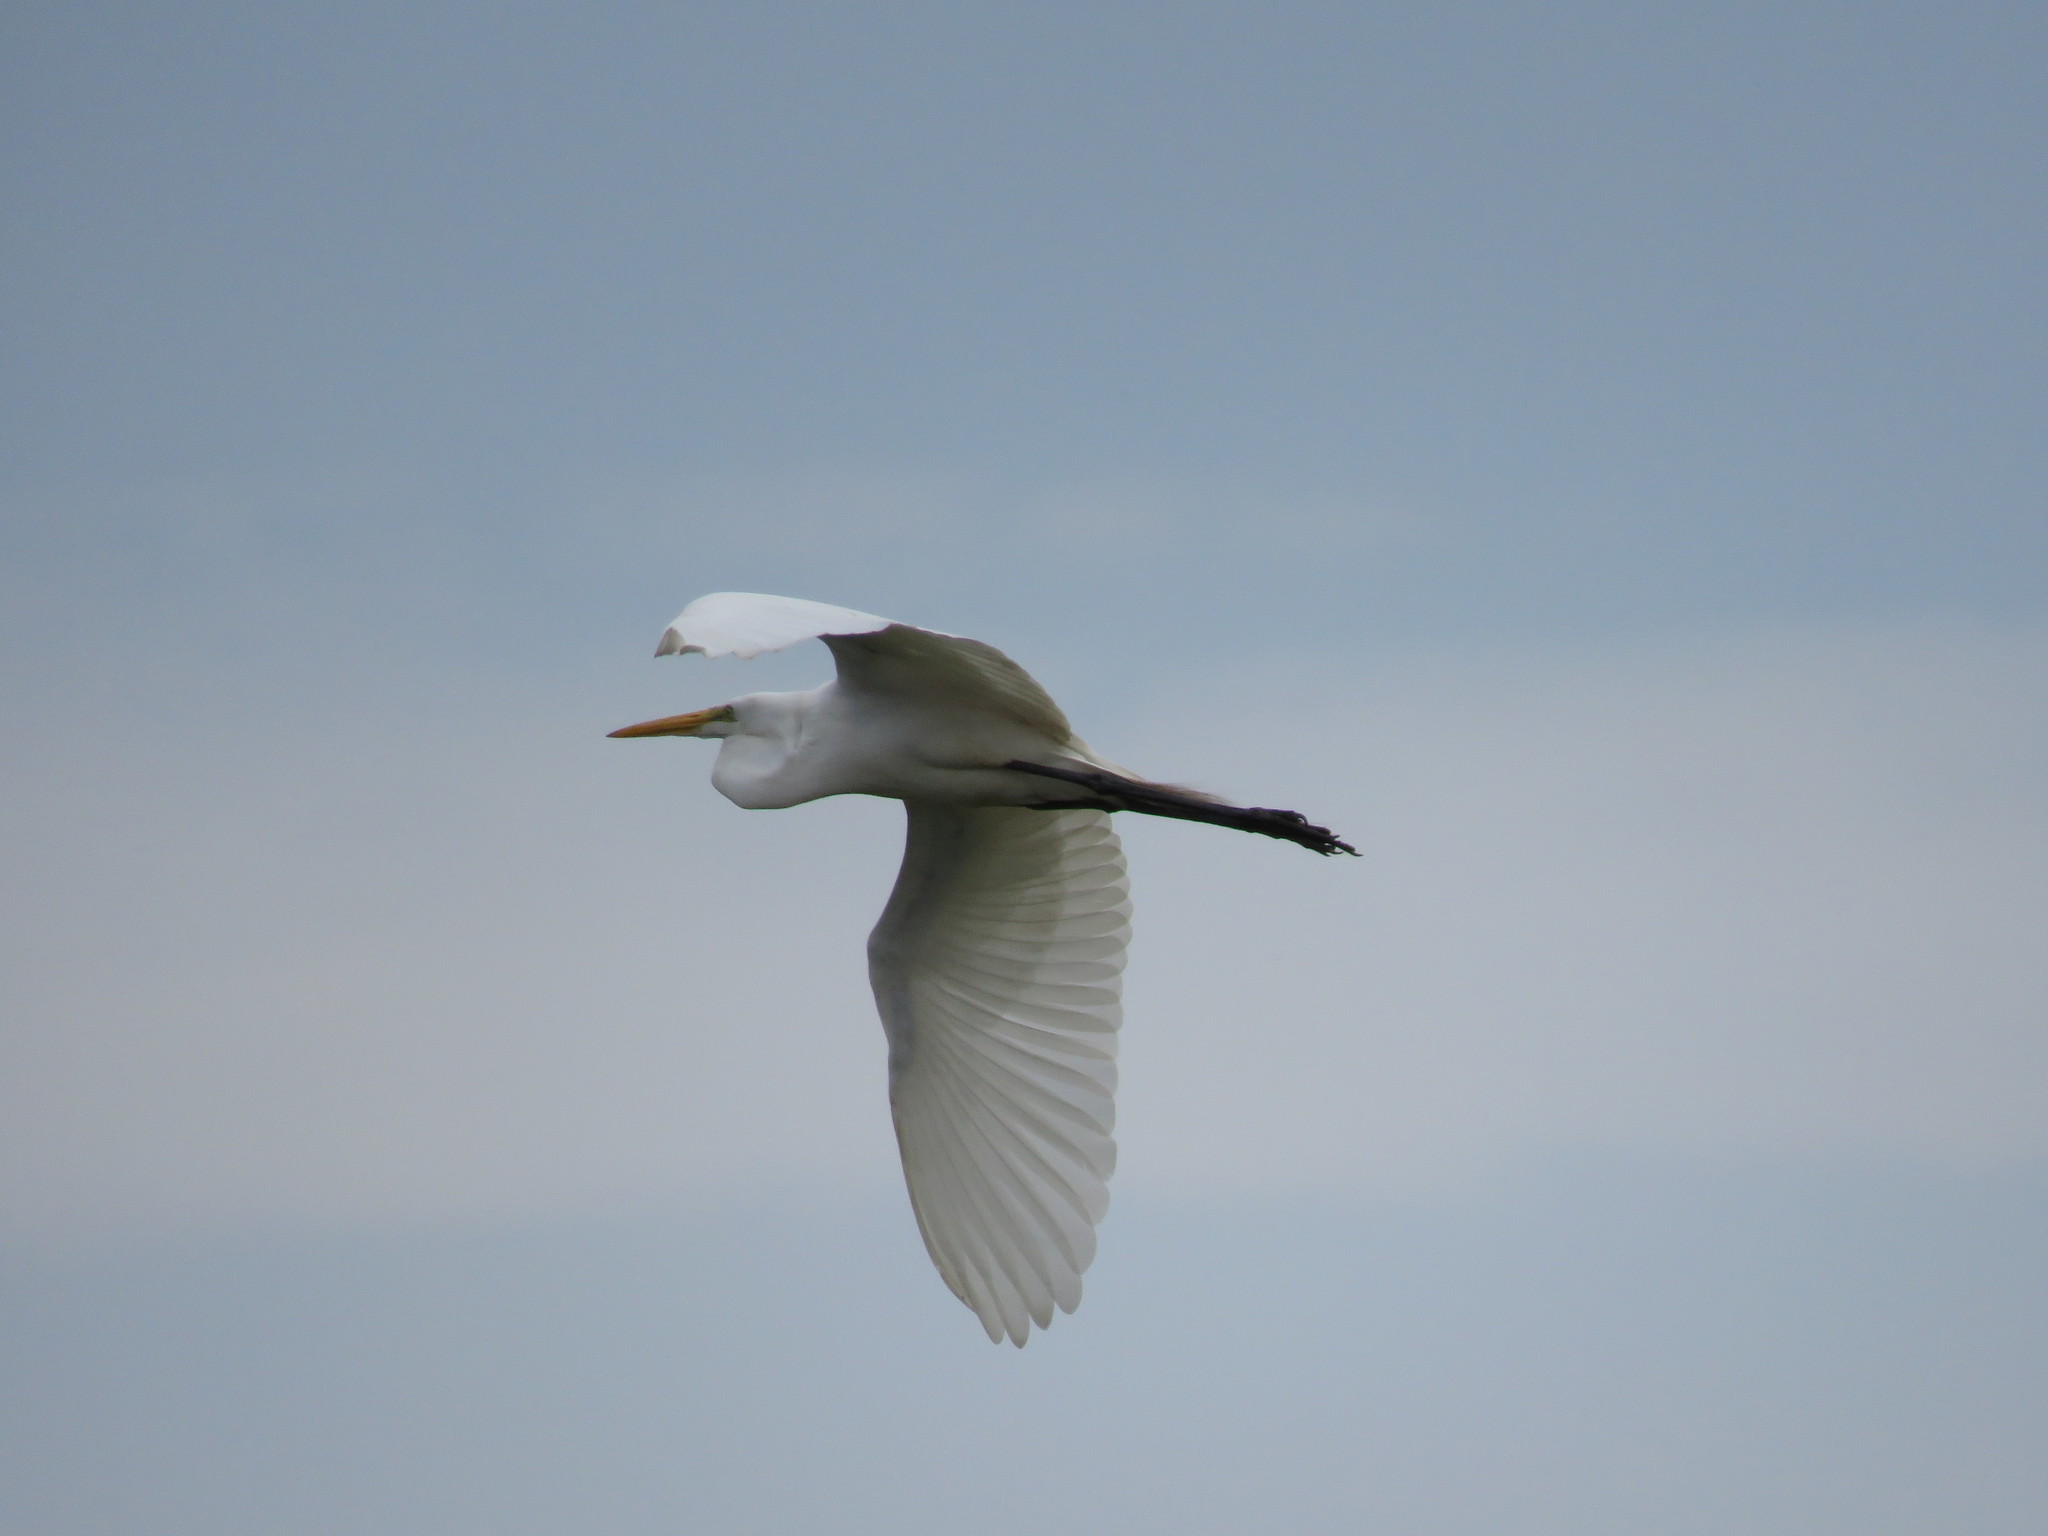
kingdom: Animalia
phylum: Chordata
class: Aves
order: Pelecaniformes
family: Ardeidae
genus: Ardea
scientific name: Ardea alba
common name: Great egret
